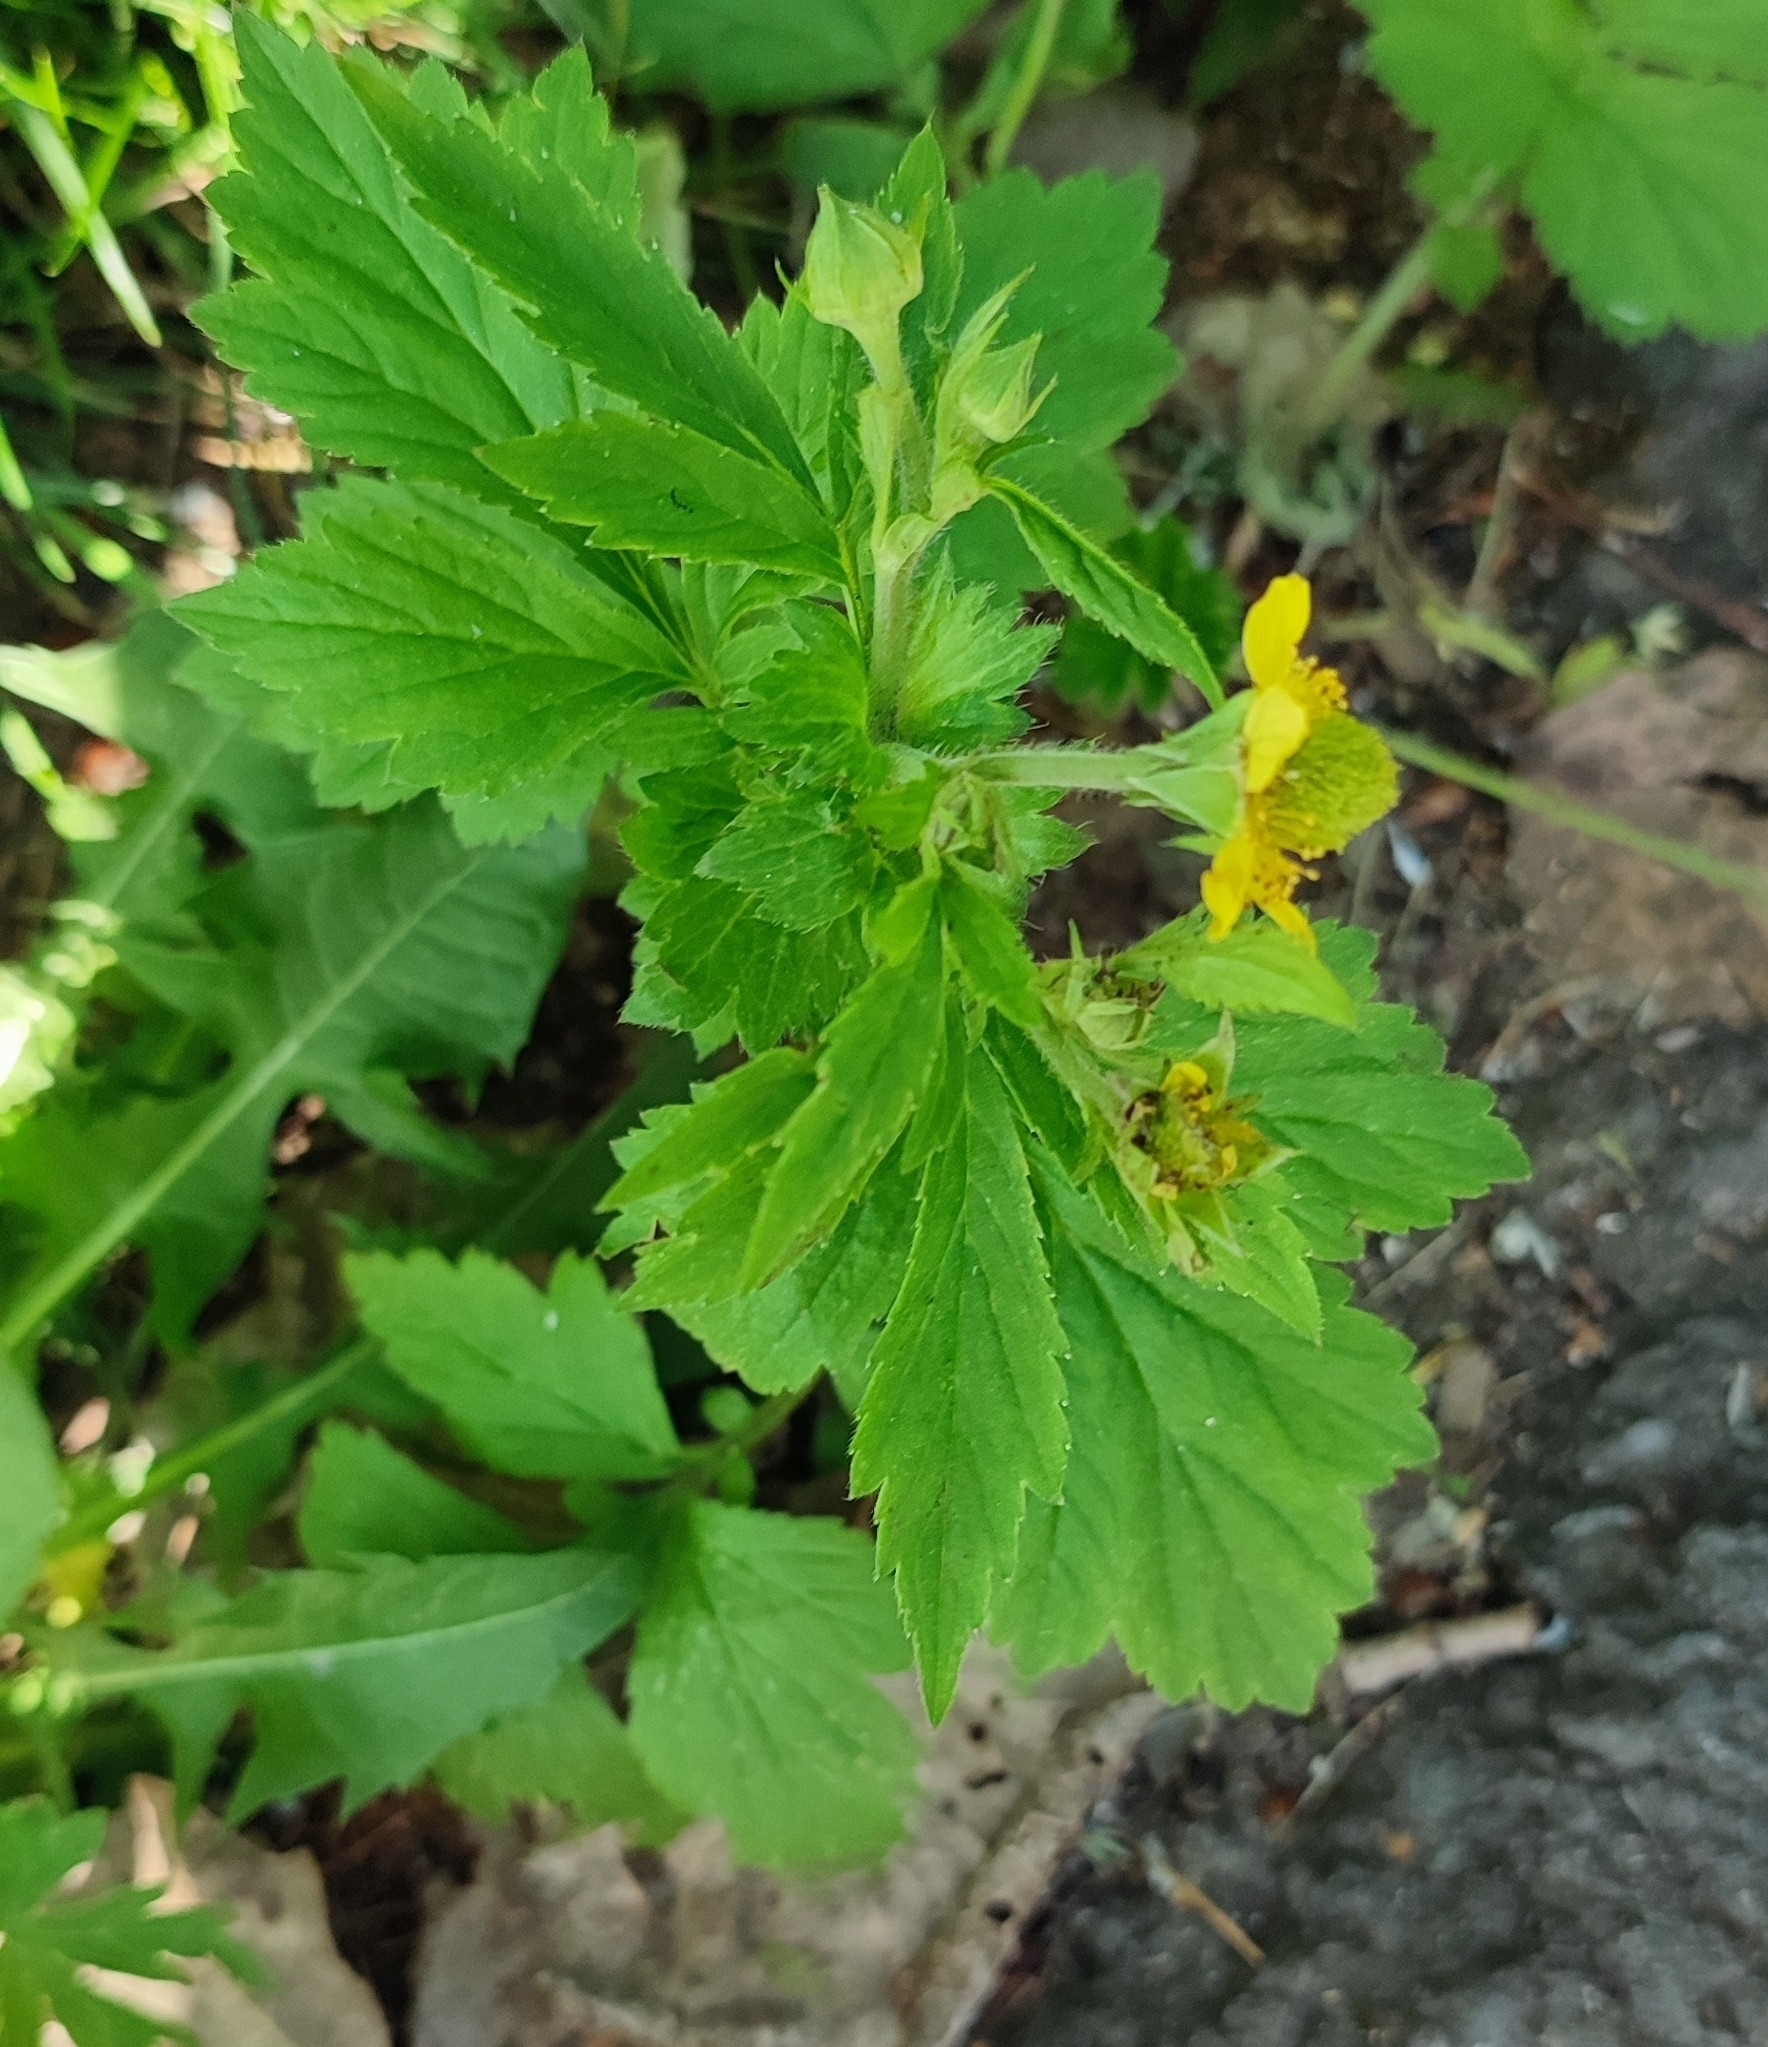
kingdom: Plantae
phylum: Tracheophyta
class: Magnoliopsida
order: Rosales
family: Rosaceae
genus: Geum
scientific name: Geum aleppicum
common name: Yellow avens
